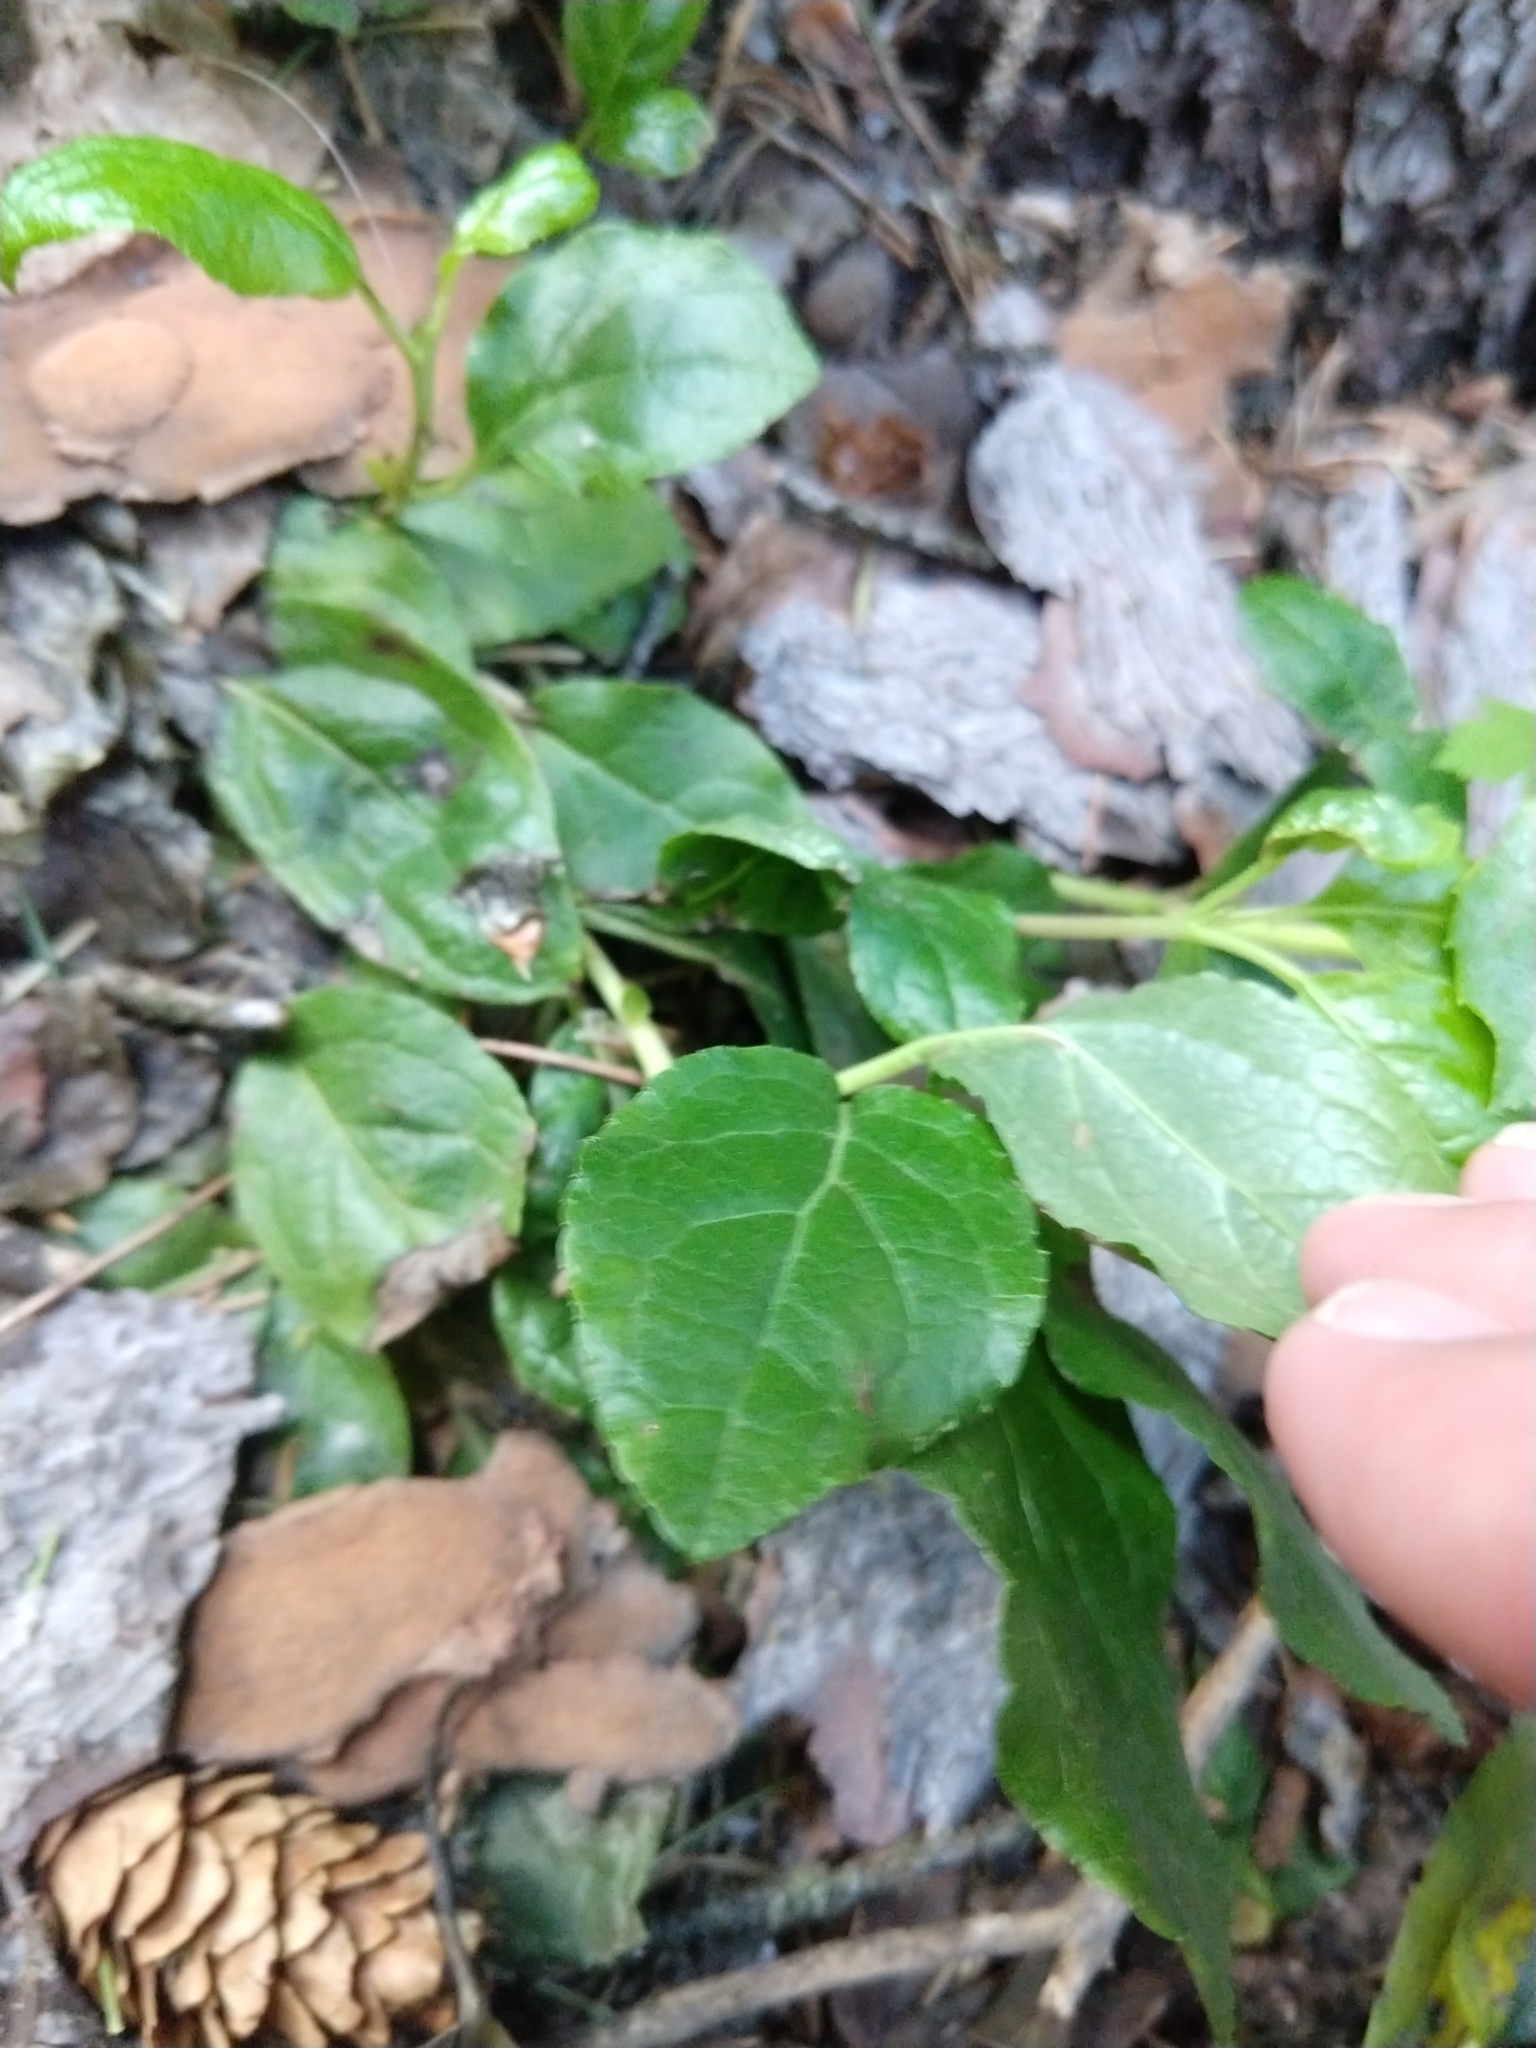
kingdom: Plantae
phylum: Tracheophyta
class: Magnoliopsida
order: Ericales
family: Ericaceae
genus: Orthilia
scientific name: Orthilia secunda
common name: One-sided orthilia
